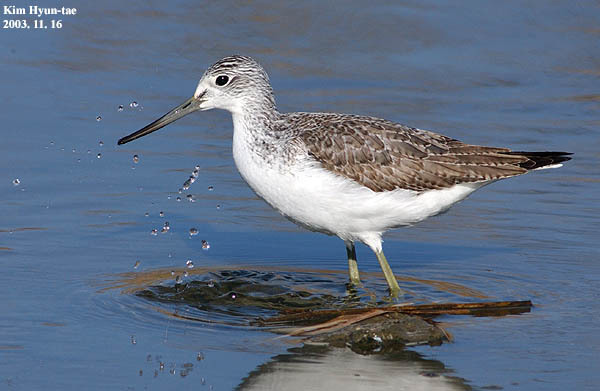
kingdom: Animalia
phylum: Chordata
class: Aves
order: Charadriiformes
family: Scolopacidae
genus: Tringa
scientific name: Tringa nebularia
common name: Common greenshank
